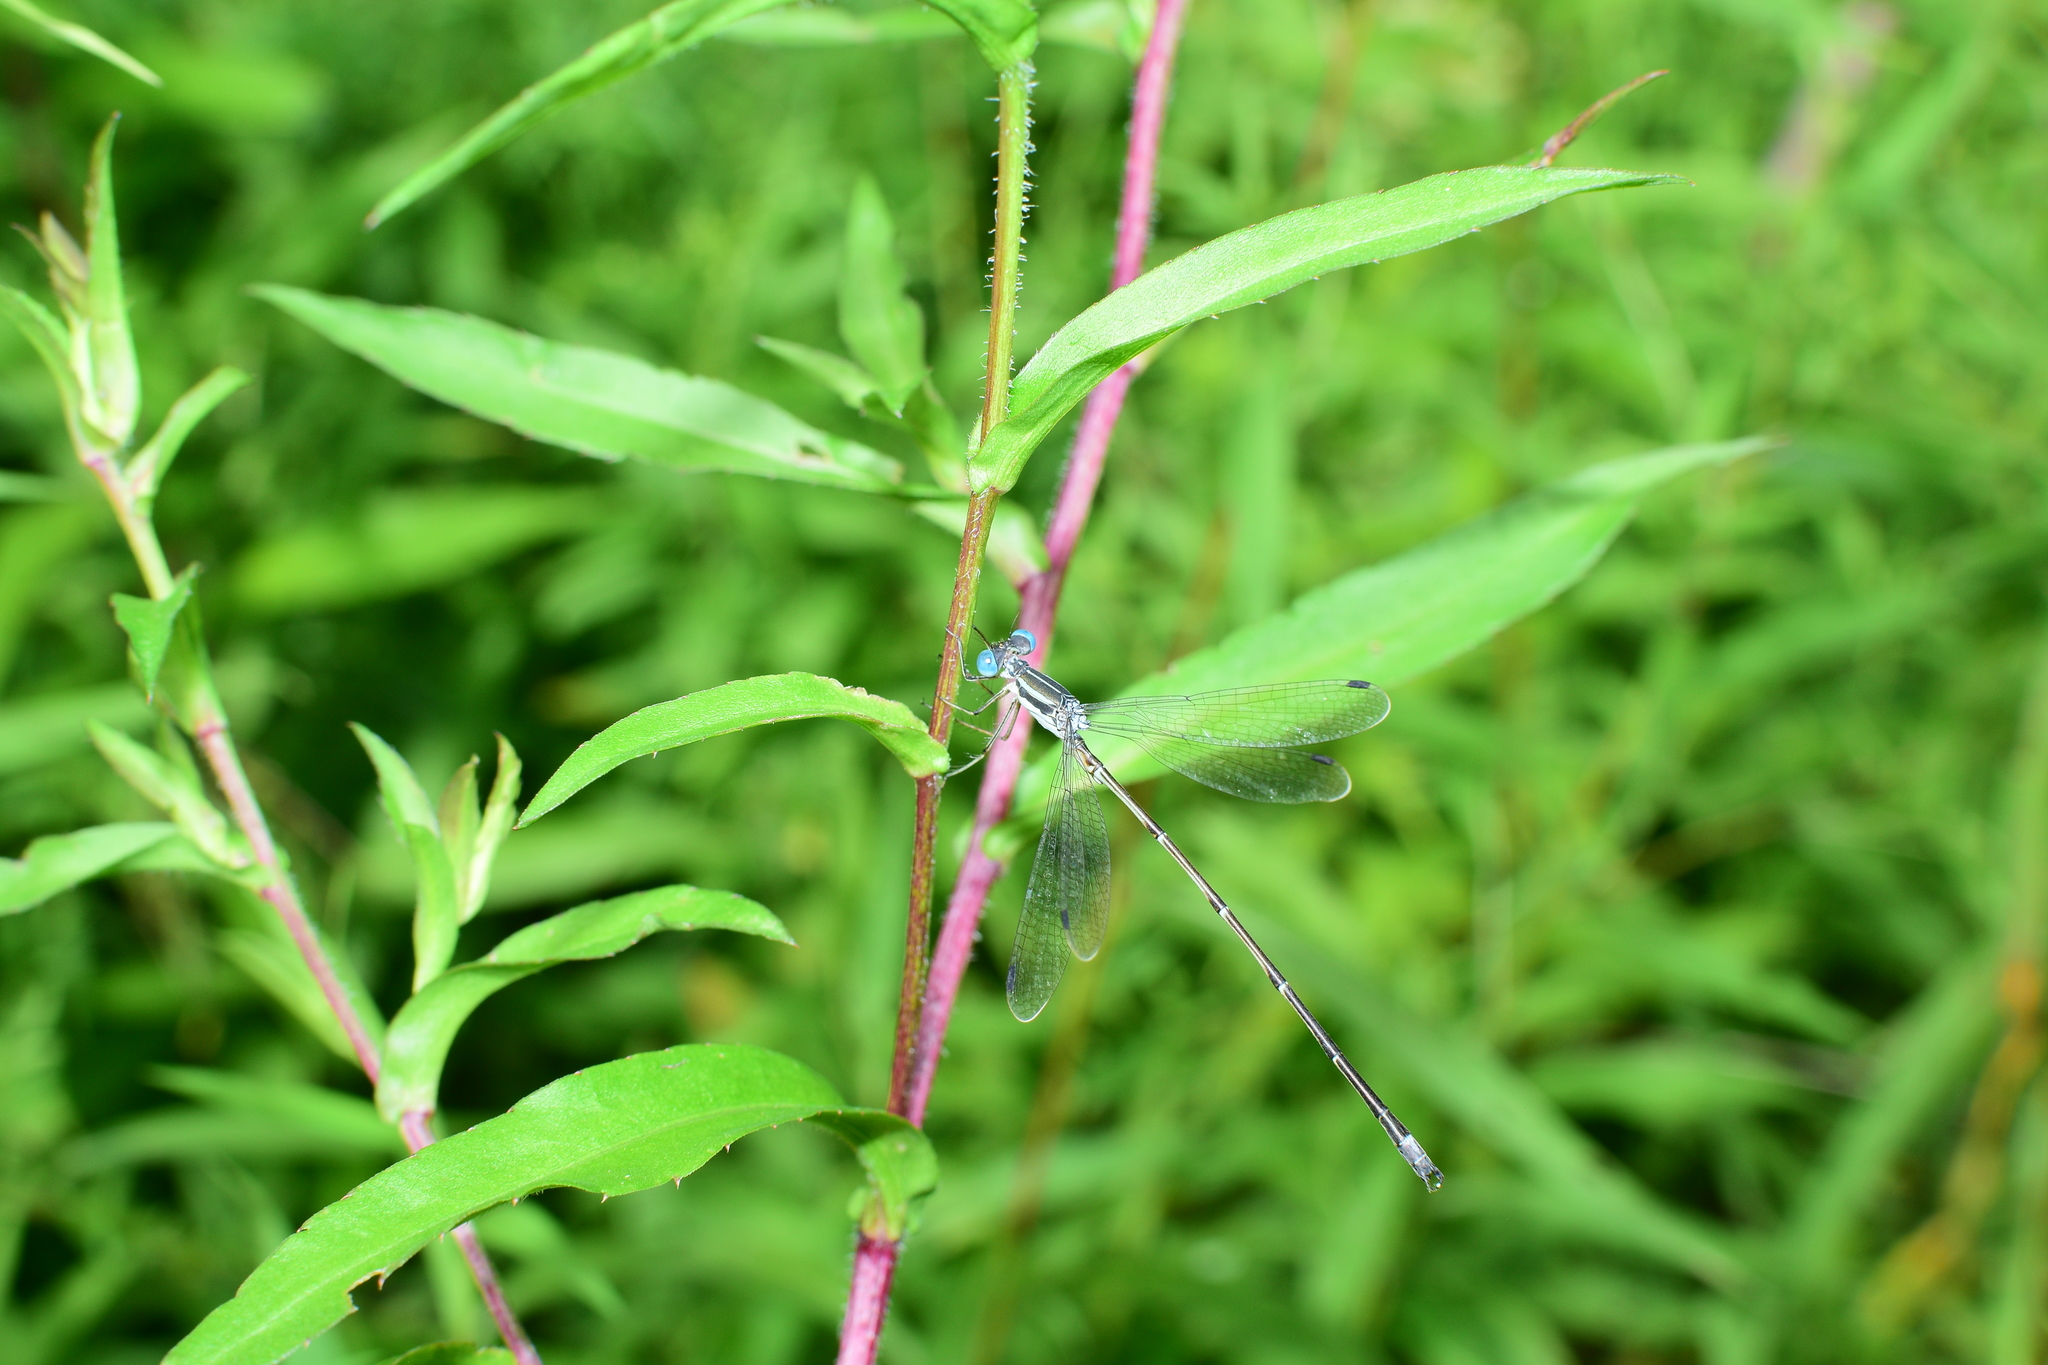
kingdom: Animalia
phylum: Arthropoda
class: Insecta
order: Odonata
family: Lestidae
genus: Lestes
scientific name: Lestes rectangularis
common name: Slender spreadwing
